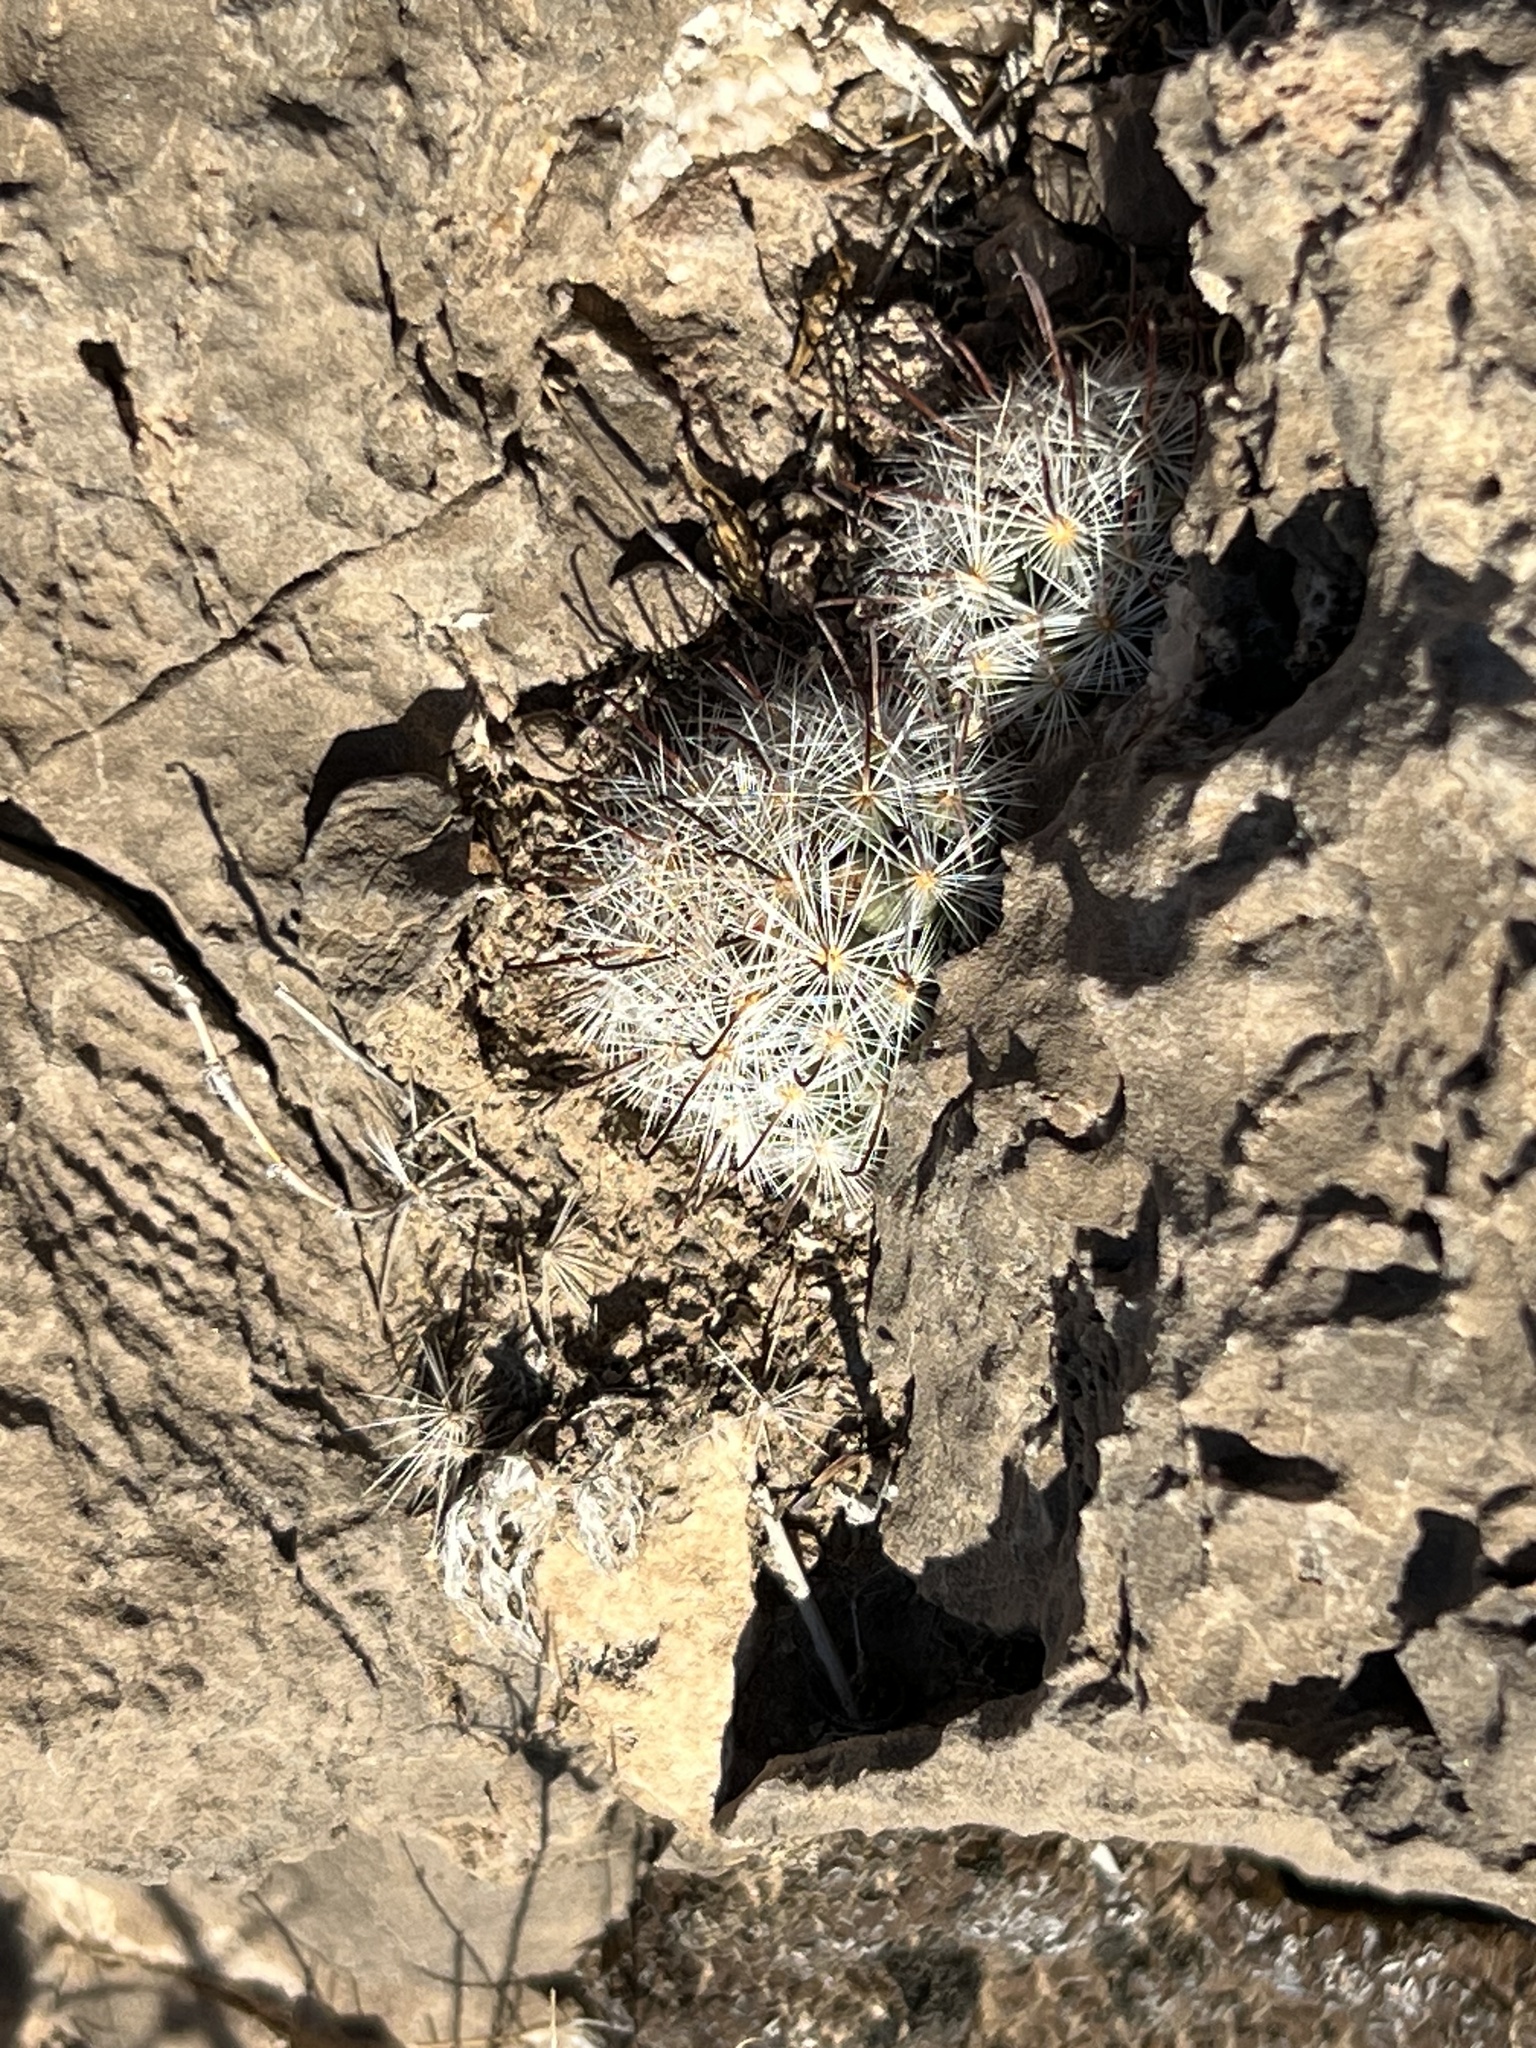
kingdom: Plantae
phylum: Tracheophyta
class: Magnoliopsida
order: Caryophyllales
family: Cactaceae
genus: Cochemiea
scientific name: Cochemiea tetrancistra
